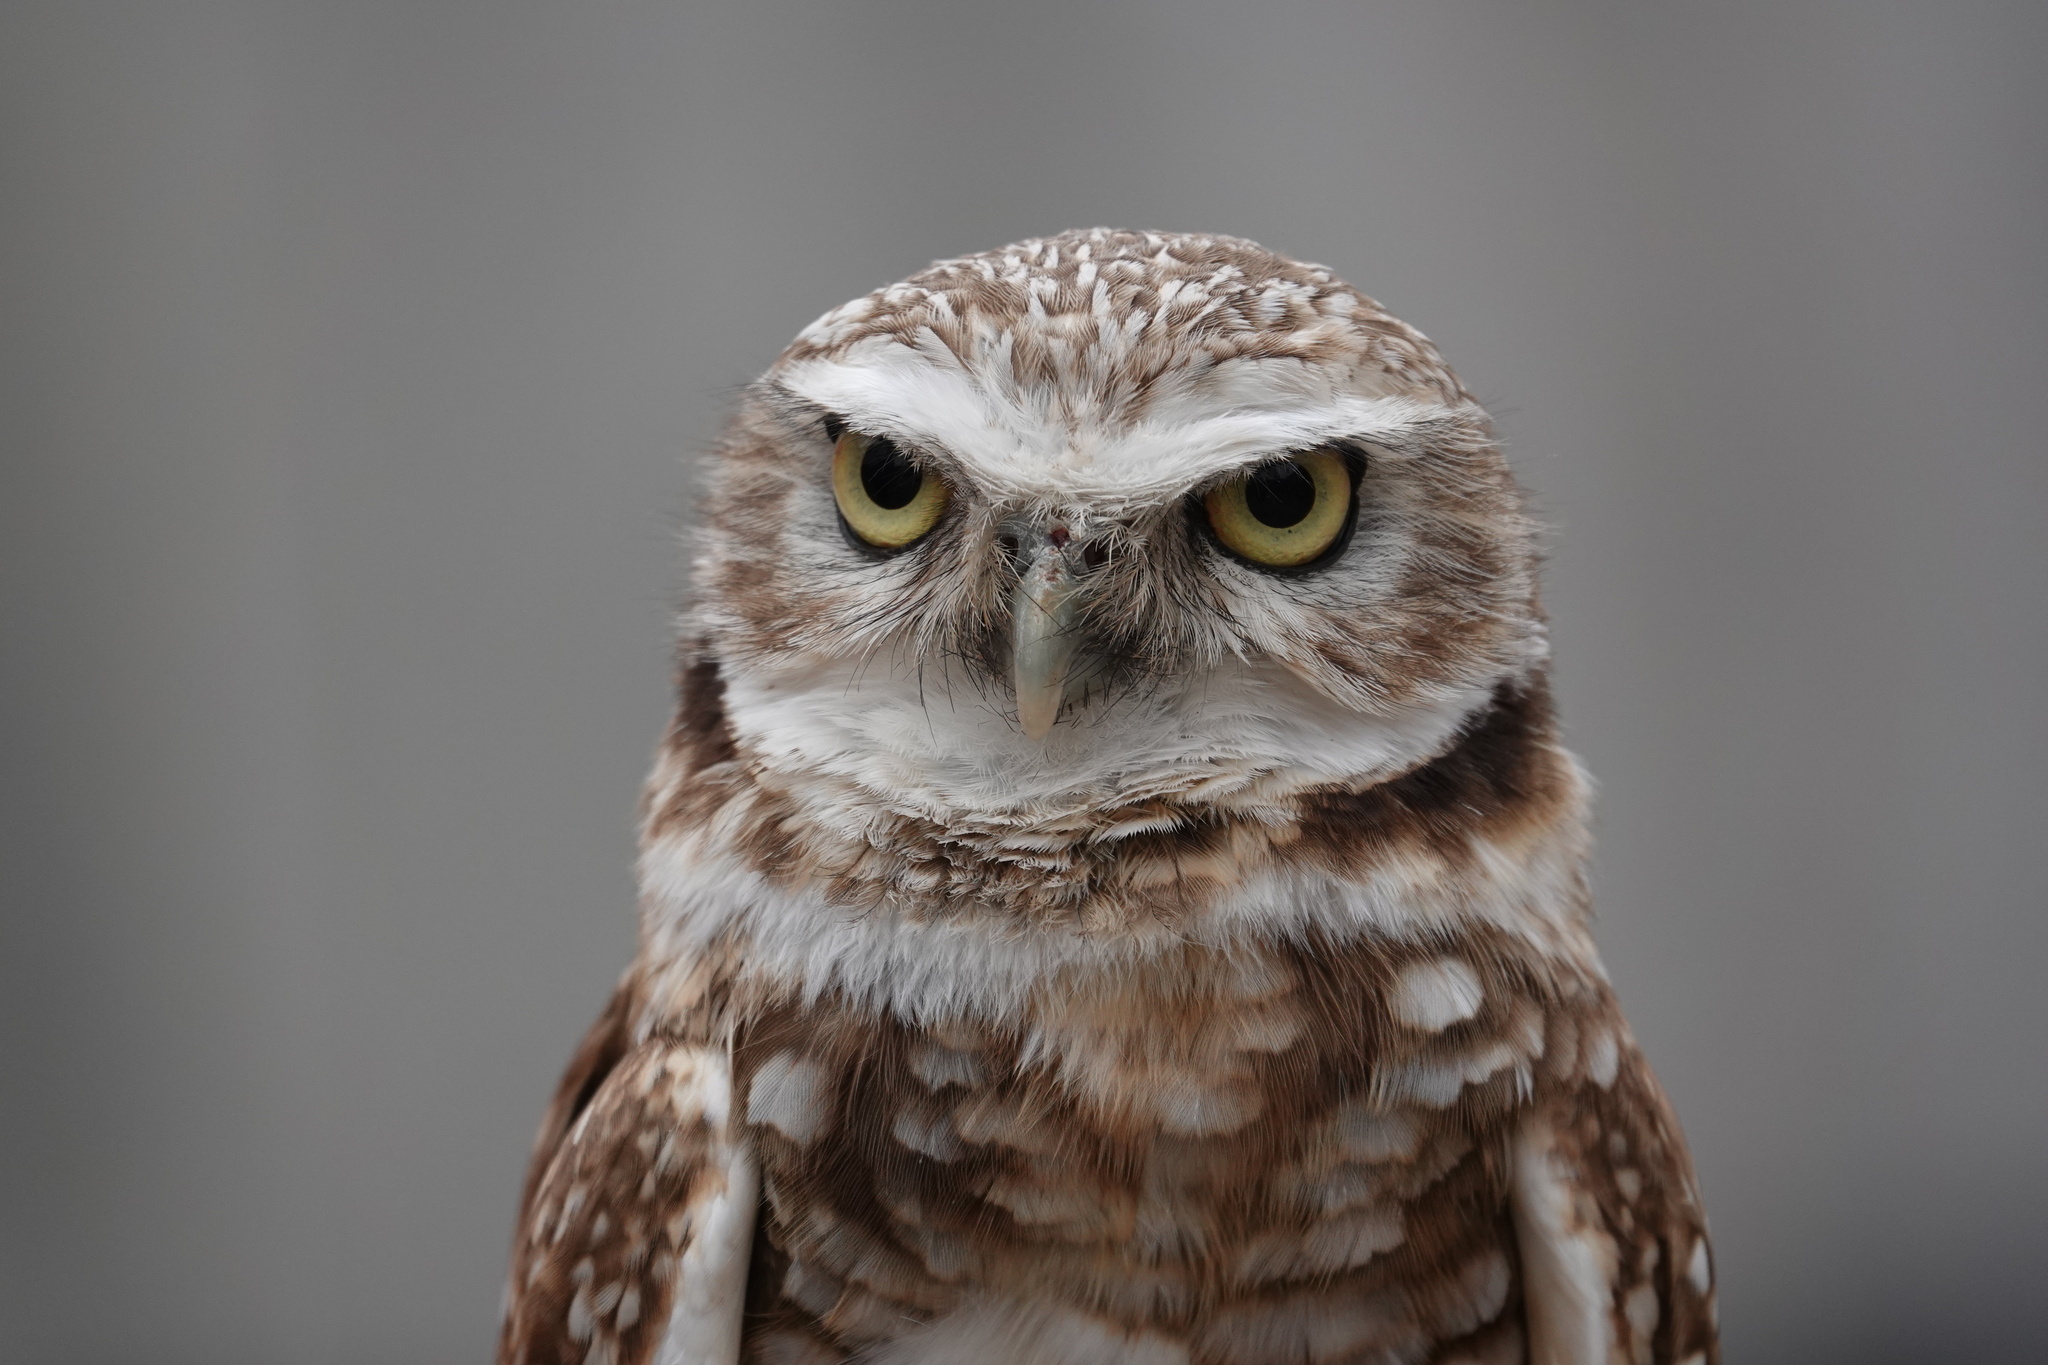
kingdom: Animalia
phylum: Chordata
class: Aves
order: Strigiformes
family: Strigidae
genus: Athene
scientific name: Athene cunicularia
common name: Burrowing owl
